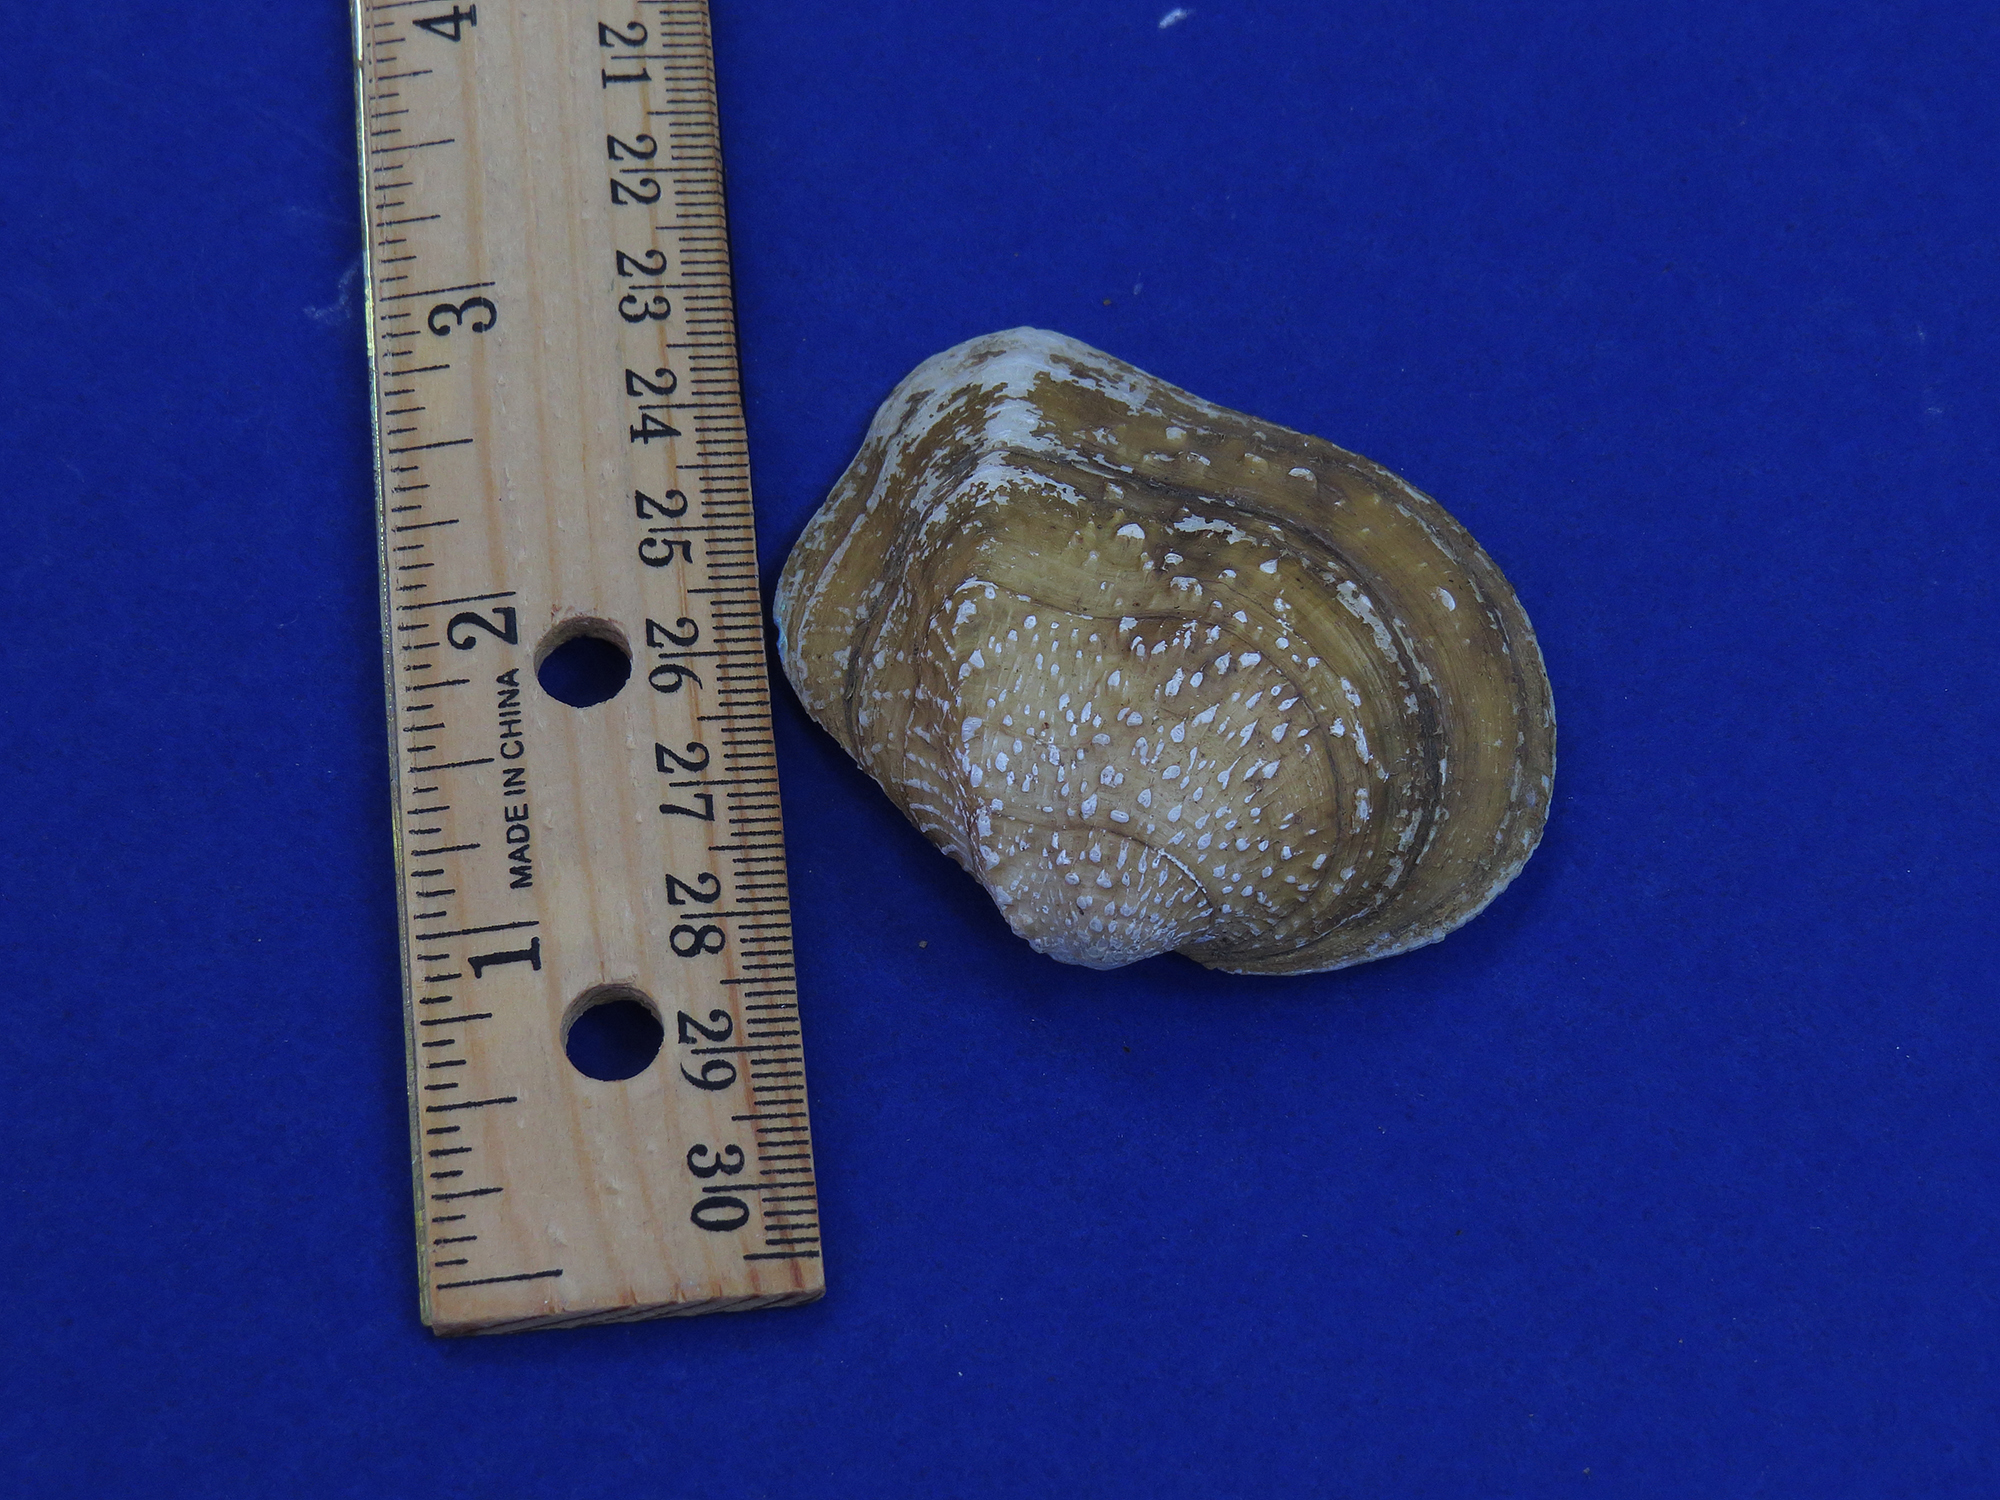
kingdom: Animalia
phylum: Mollusca
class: Bivalvia
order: Unionida
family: Unionidae
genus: Quadrula
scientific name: Quadrula quadrula
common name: Mapleleaf
